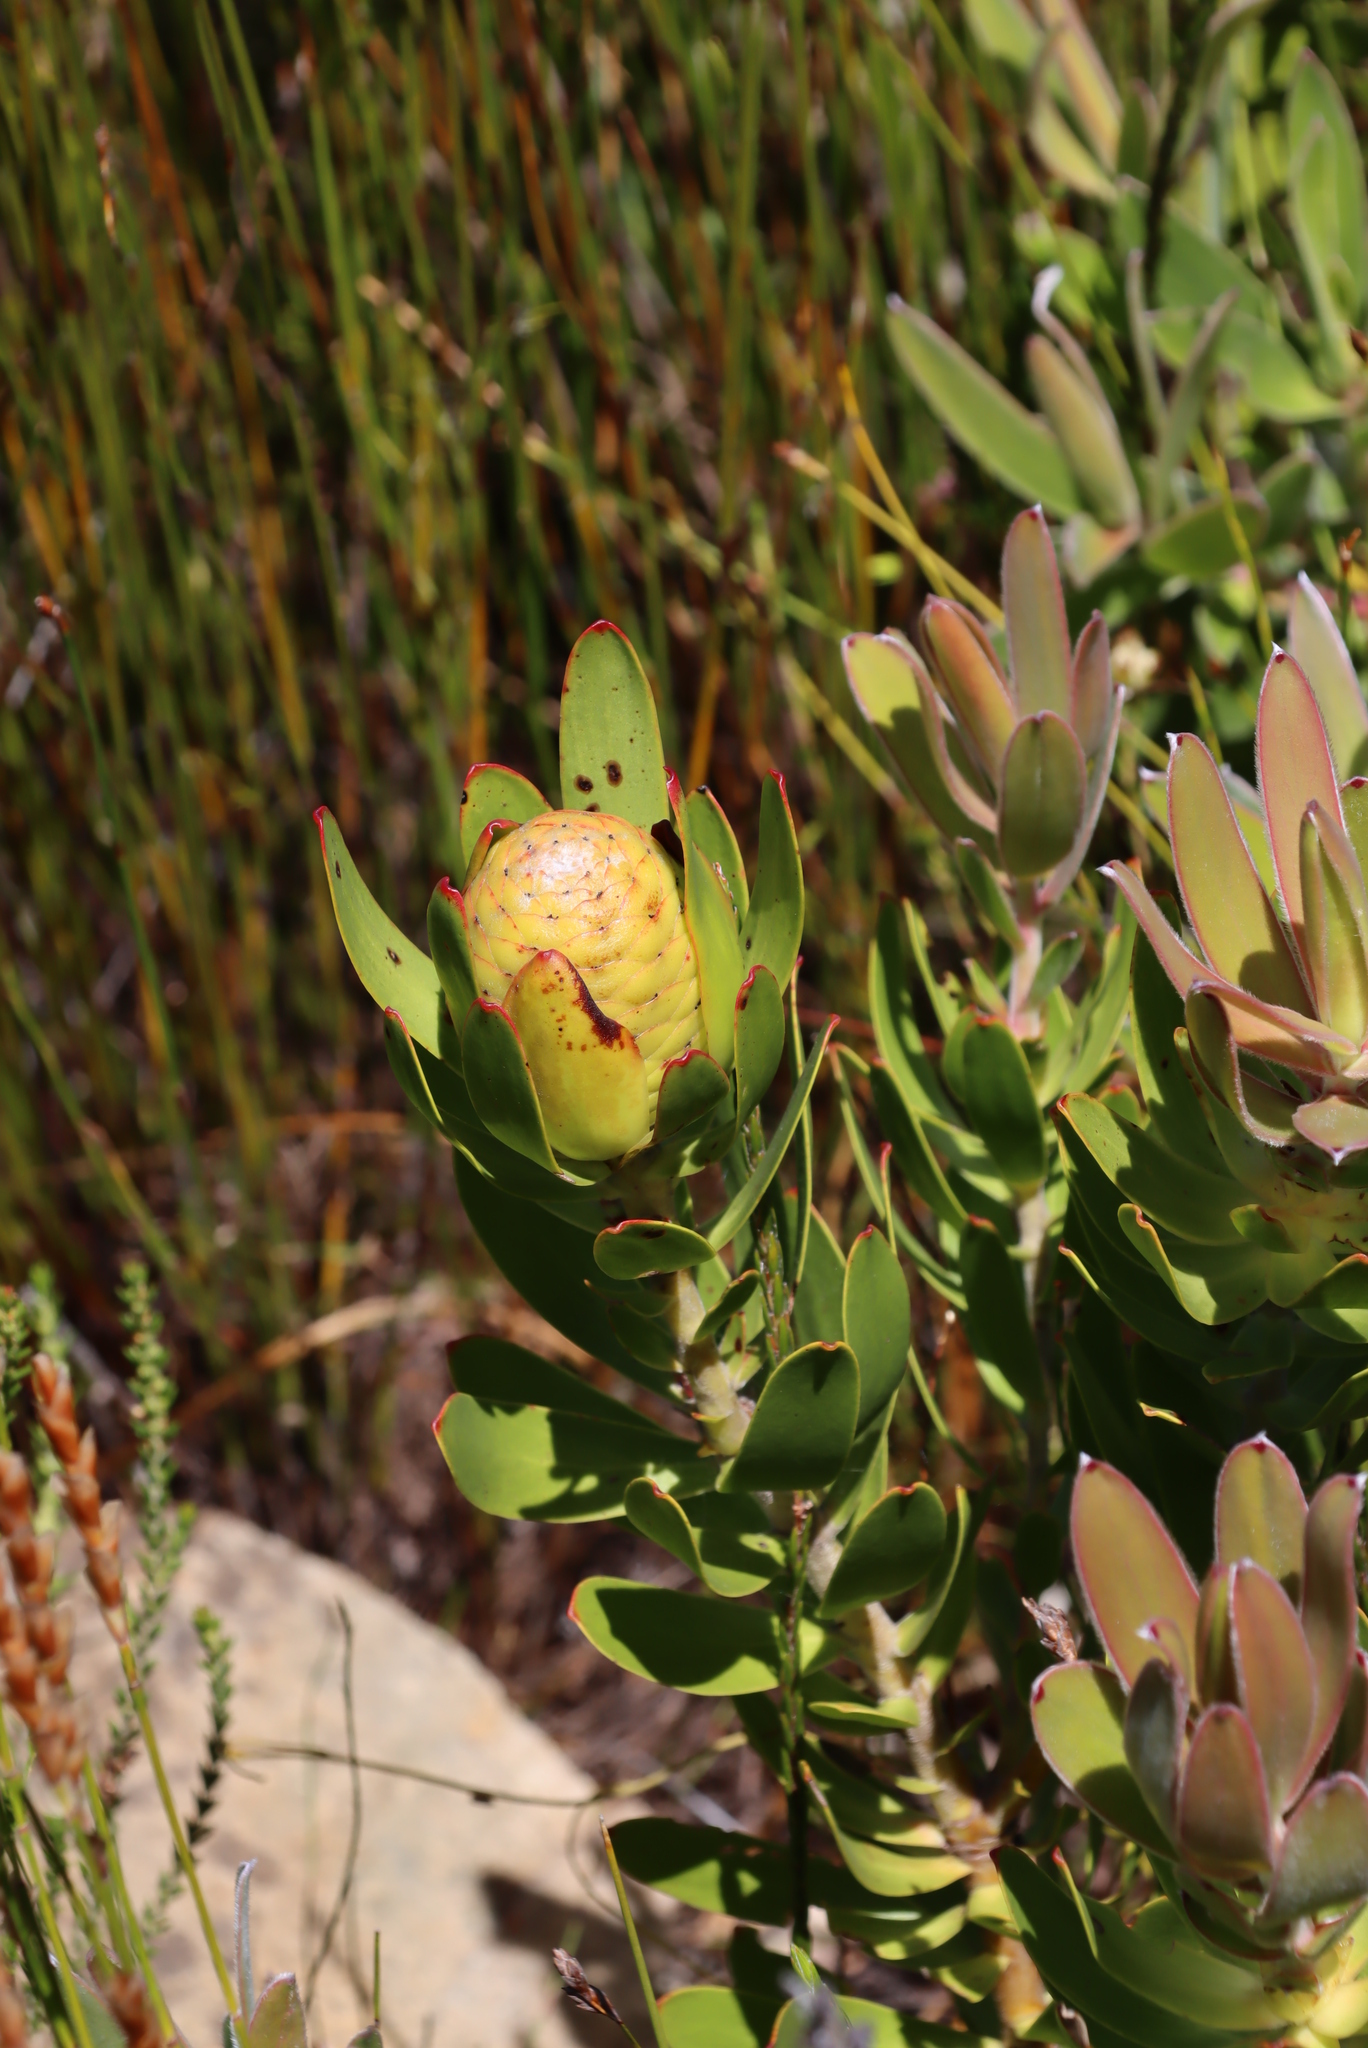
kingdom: Plantae
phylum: Tracheophyta
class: Magnoliopsida
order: Proteales
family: Proteaceae
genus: Leucadendron
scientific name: Leucadendron laureolum
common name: Golden sunshinebush
